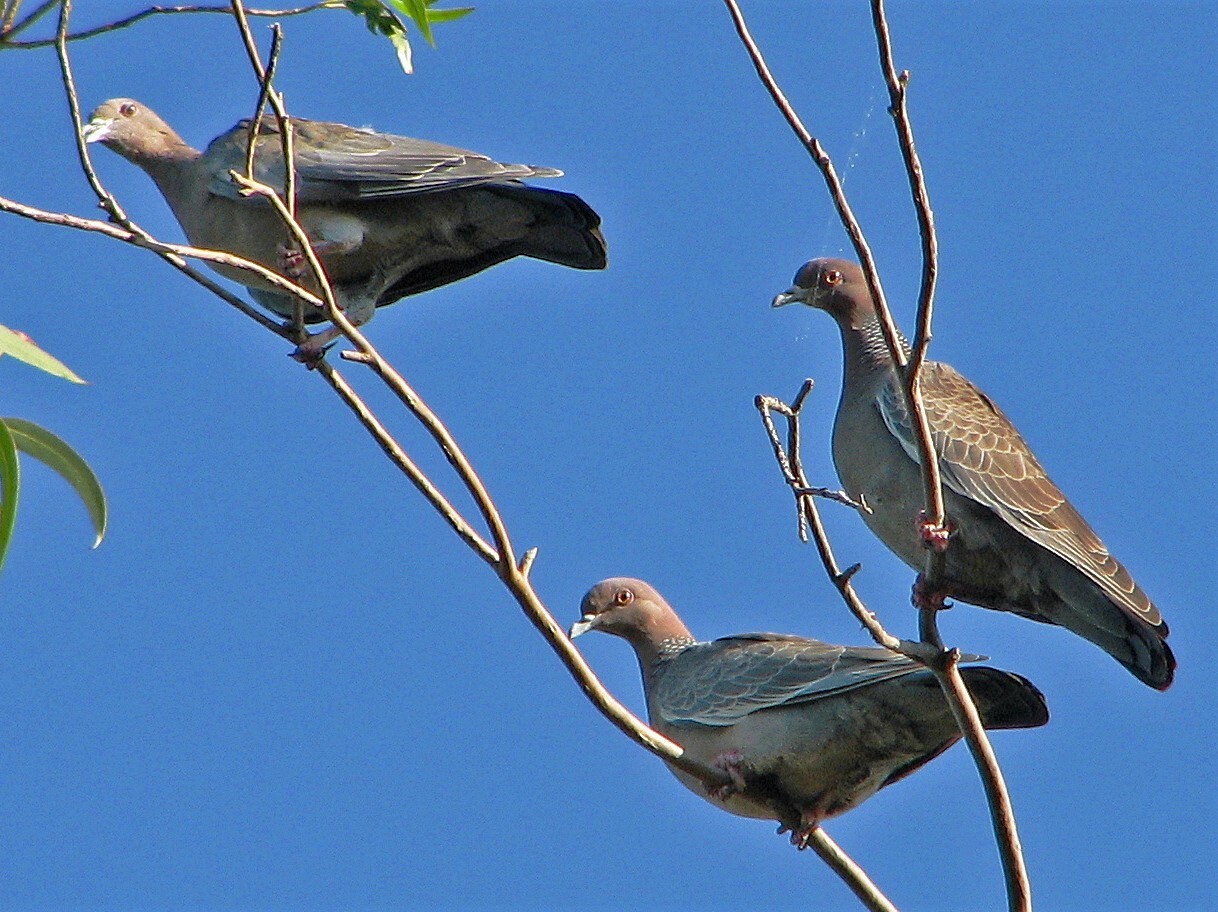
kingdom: Animalia
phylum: Chordata
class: Aves
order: Columbiformes
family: Columbidae
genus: Patagioenas
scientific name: Patagioenas picazuro
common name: Picazuro pigeon
